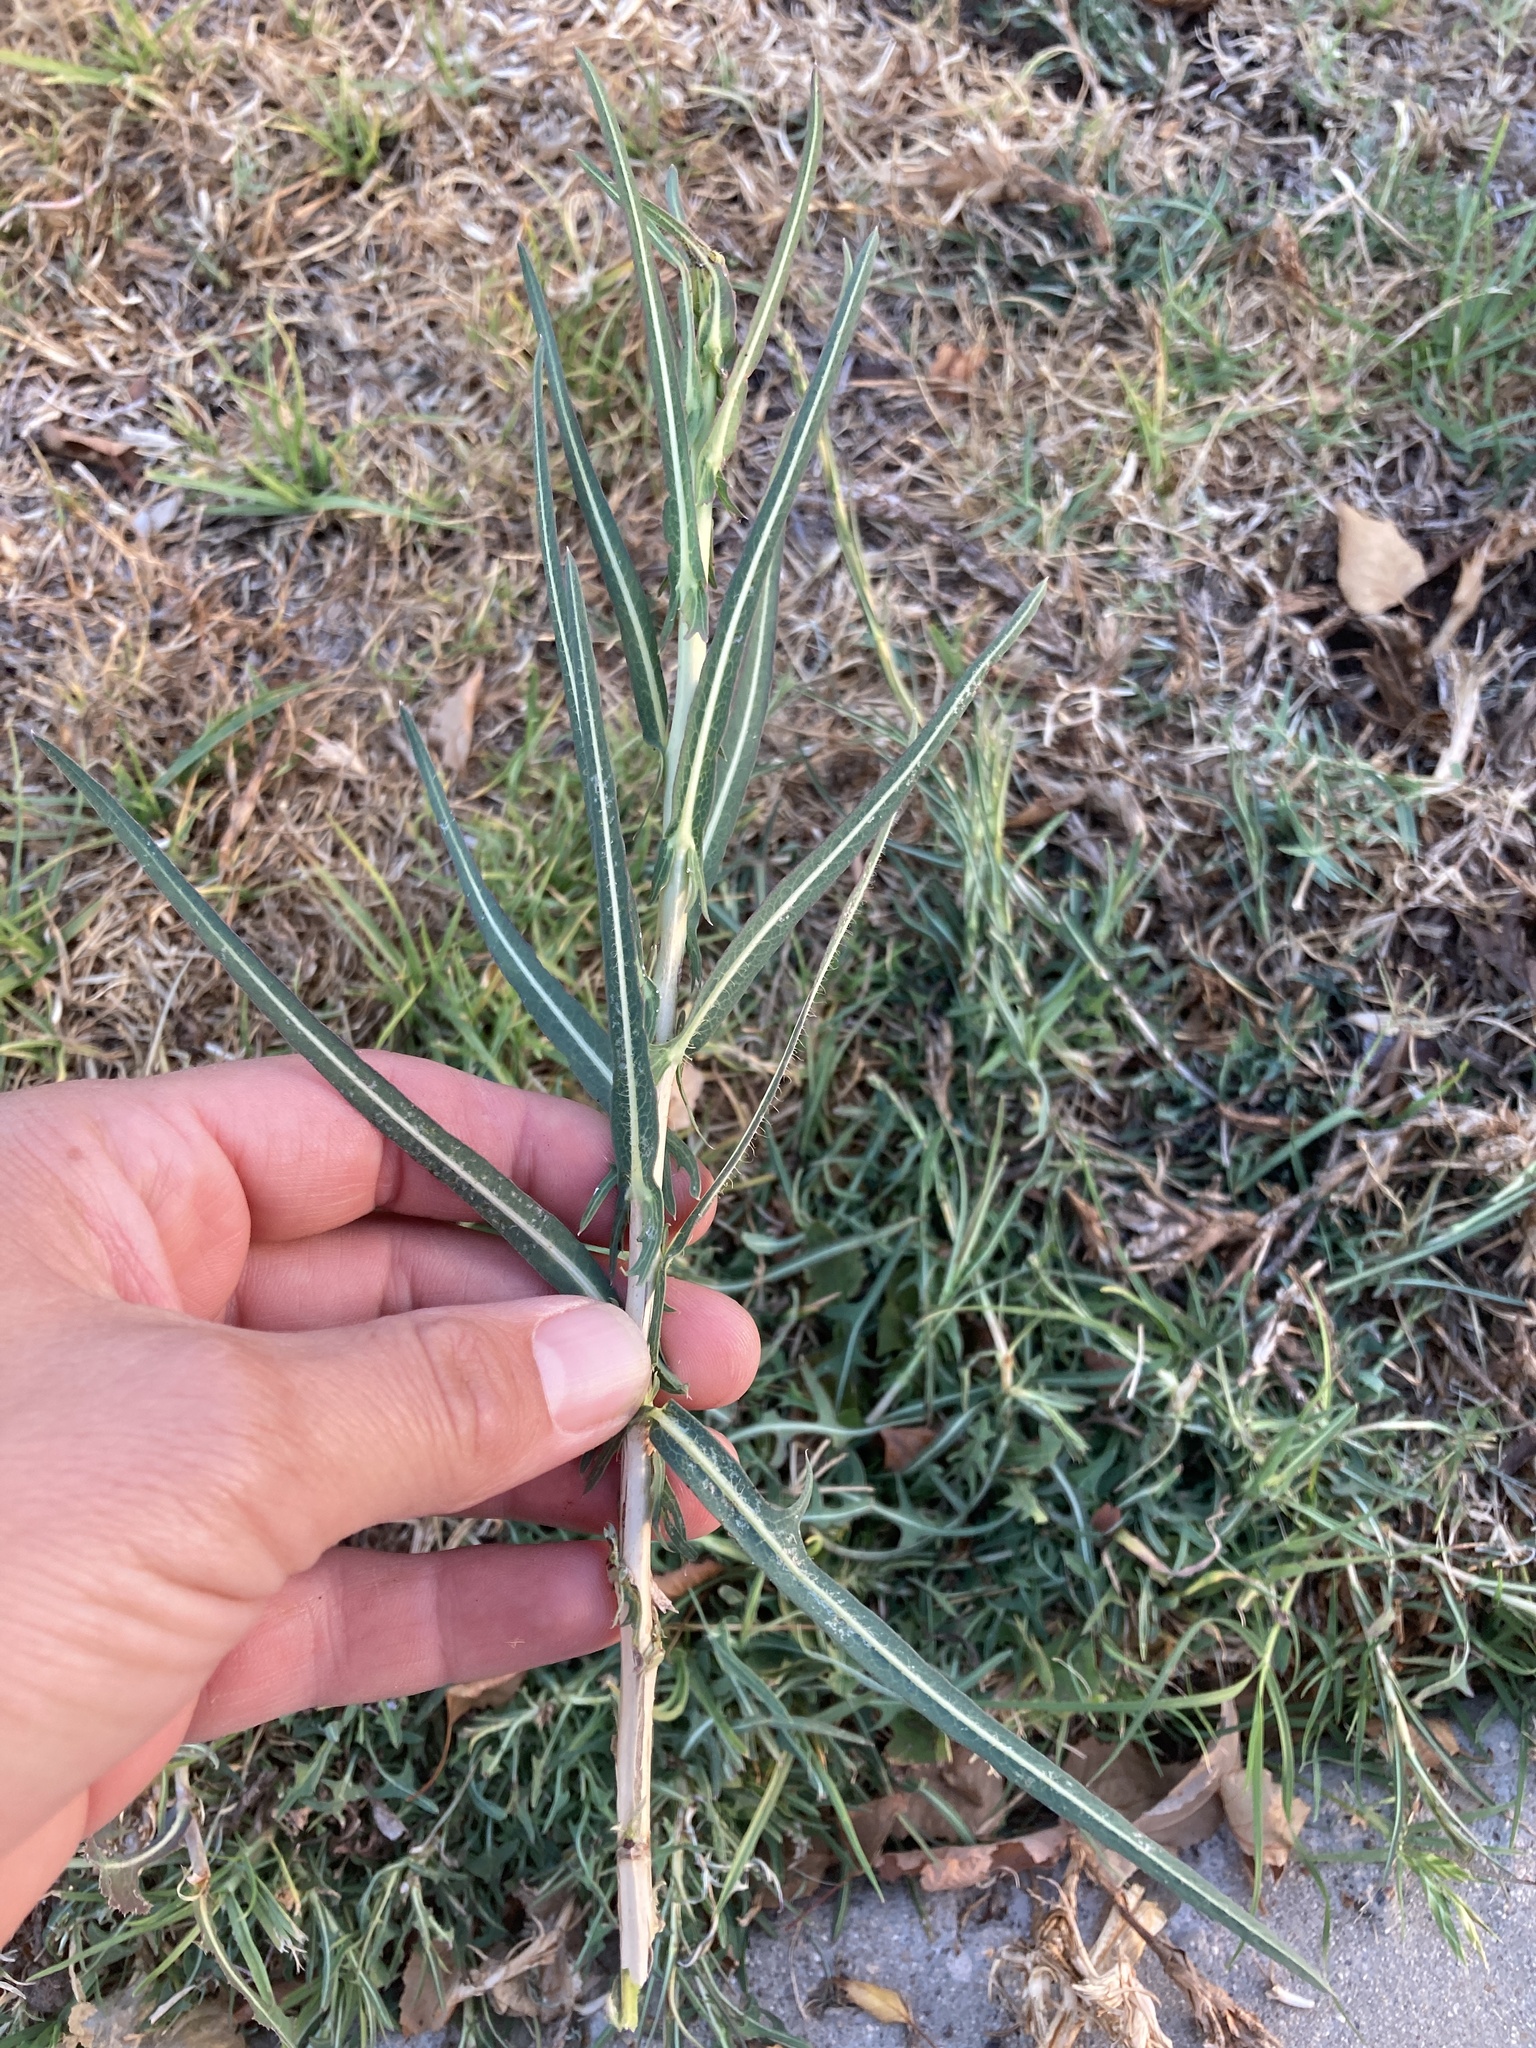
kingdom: Plantae
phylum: Tracheophyta
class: Magnoliopsida
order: Asterales
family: Asteraceae
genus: Lactuca
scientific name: Lactuca saligna
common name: Wild lettuce
